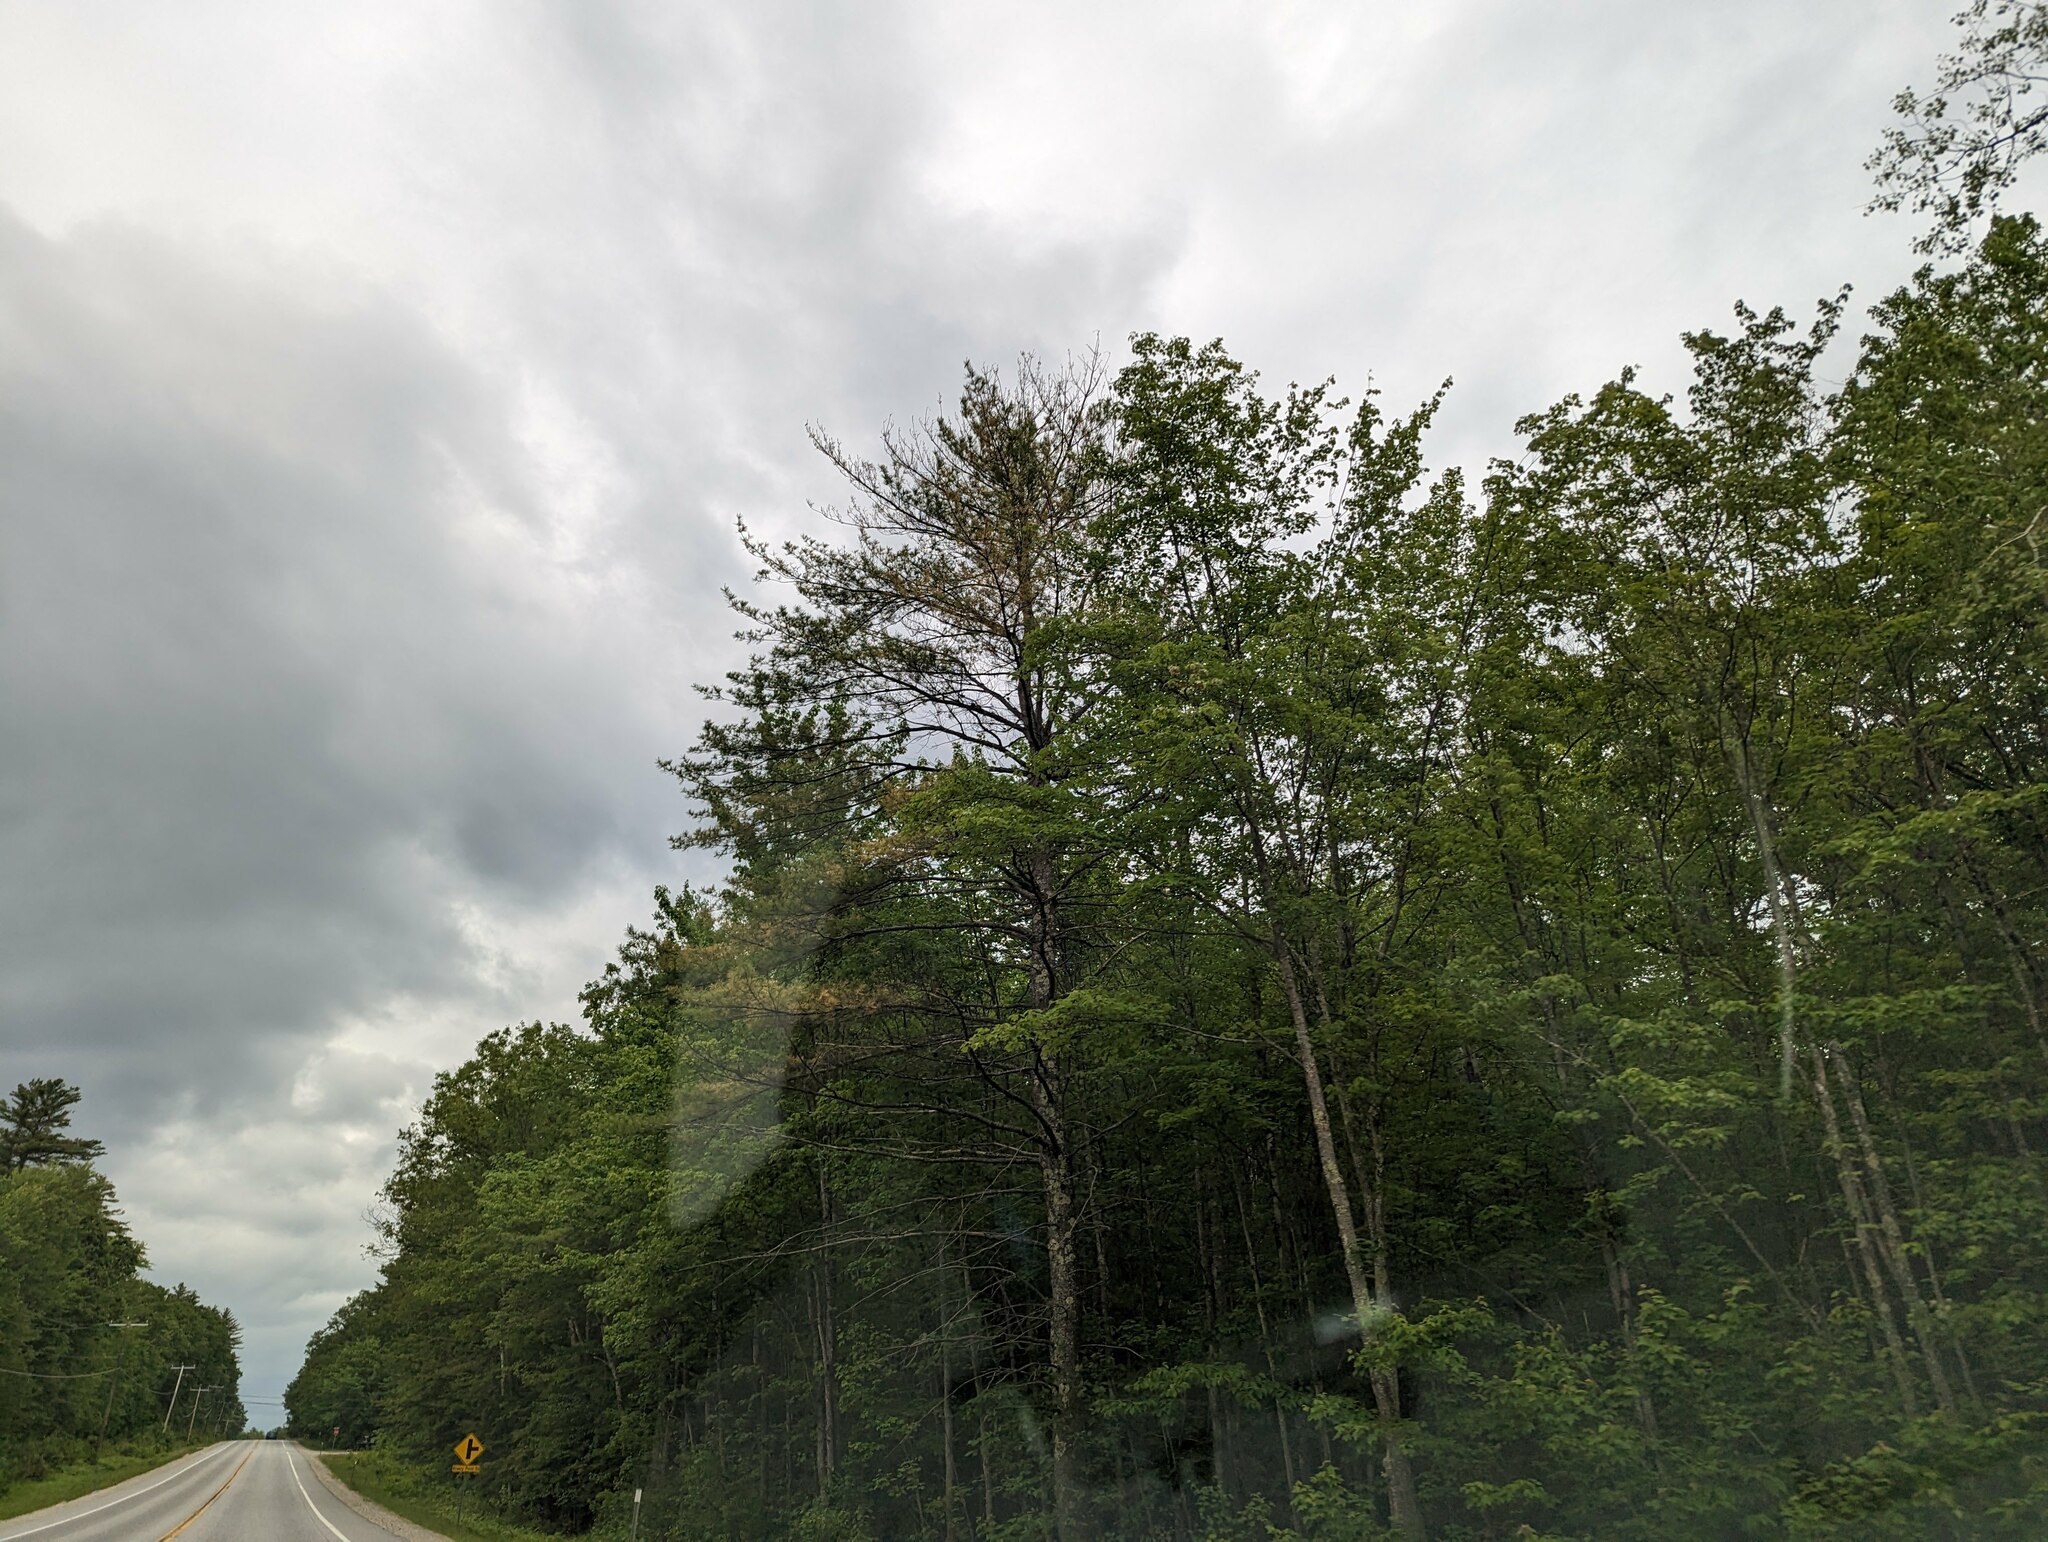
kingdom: Plantae
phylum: Tracheophyta
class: Pinopsida
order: Pinales
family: Pinaceae
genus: Pinus
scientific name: Pinus strobus
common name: Weymouth pine
